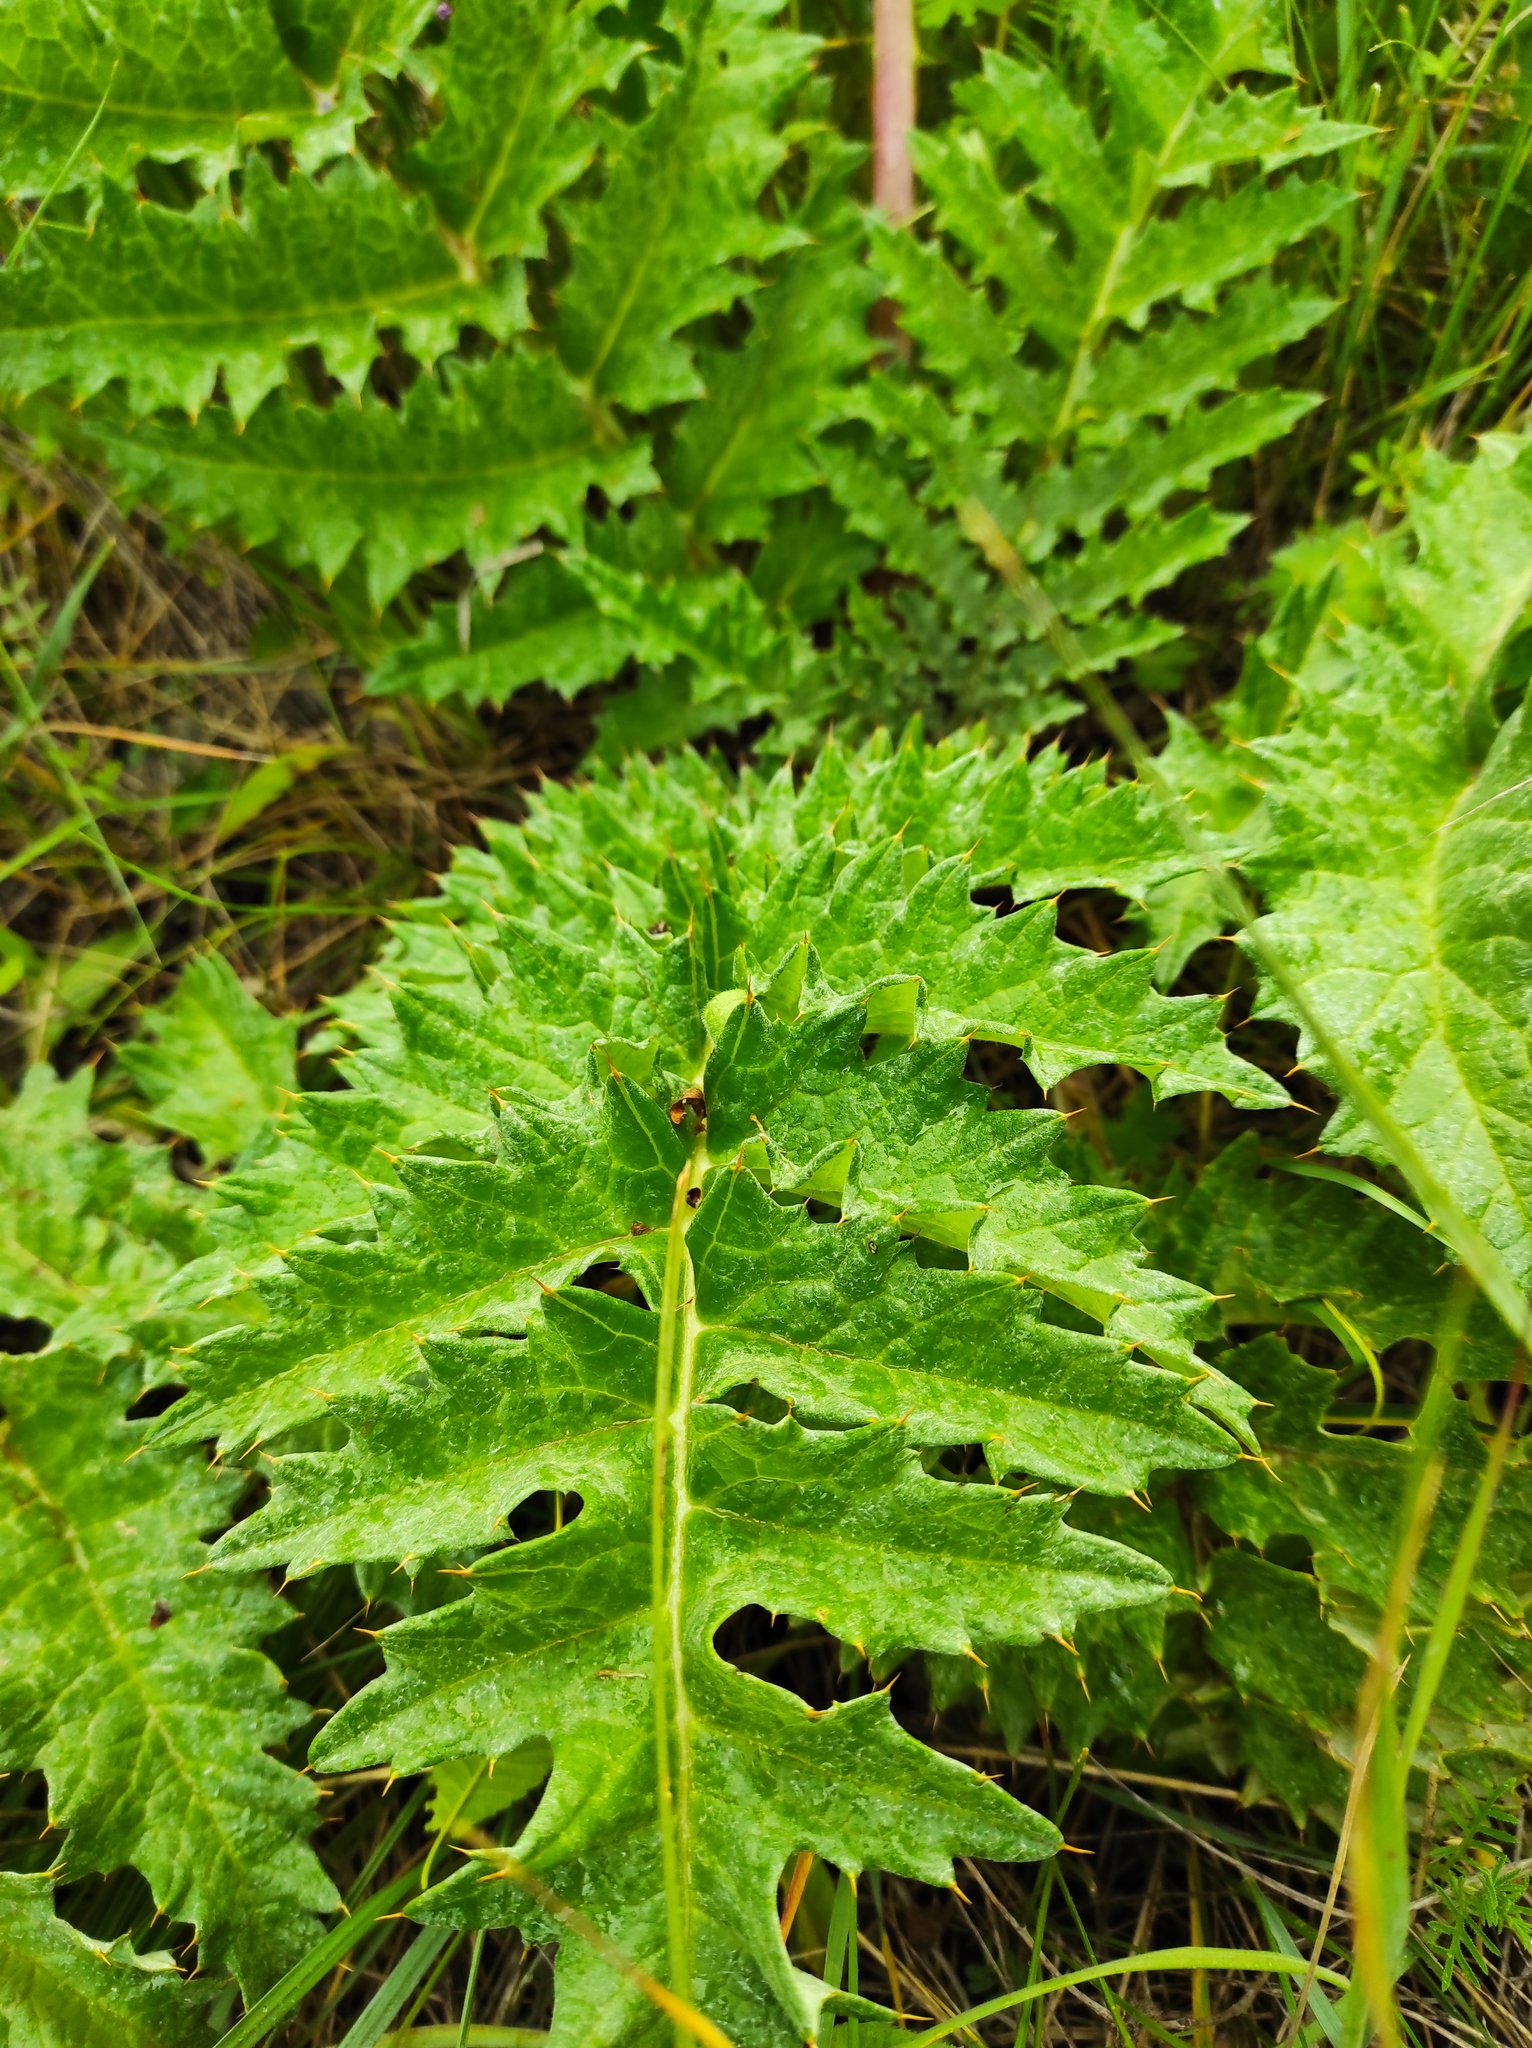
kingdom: Plantae
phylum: Tracheophyta
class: Magnoliopsida
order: Asterales
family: Asteraceae
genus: Cynara
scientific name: Cynara tournefortii
